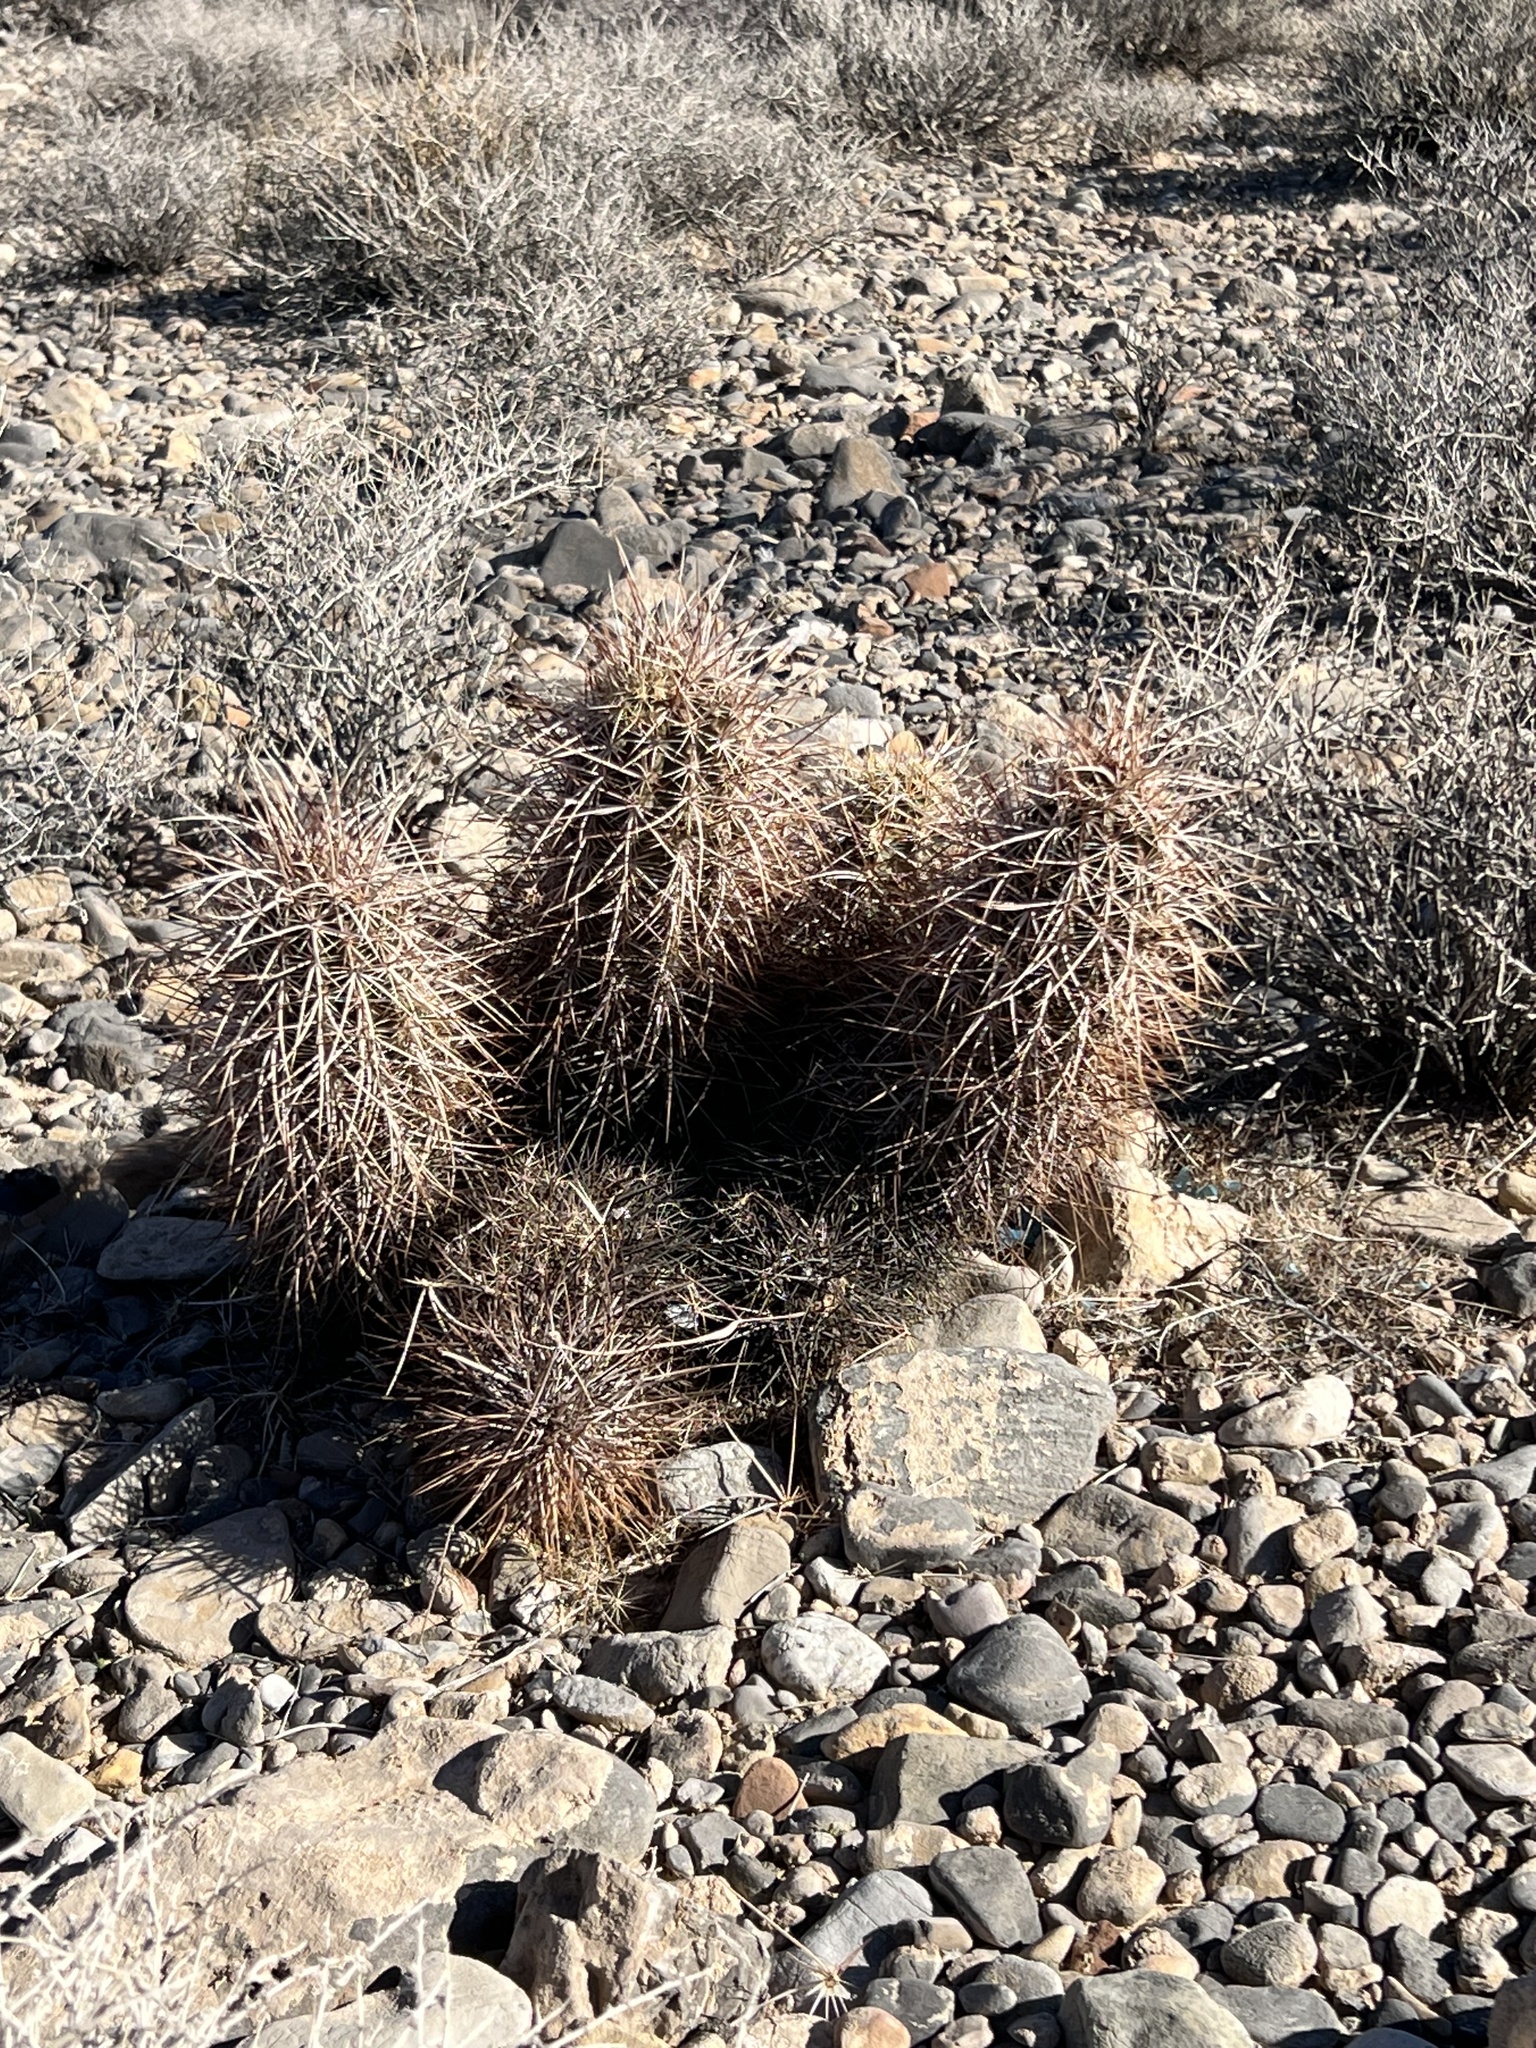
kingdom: Plantae
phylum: Tracheophyta
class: Magnoliopsida
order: Caryophyllales
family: Cactaceae
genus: Echinocereus
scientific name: Echinocereus engelmannii
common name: Engelmann's hedgehog cactus
